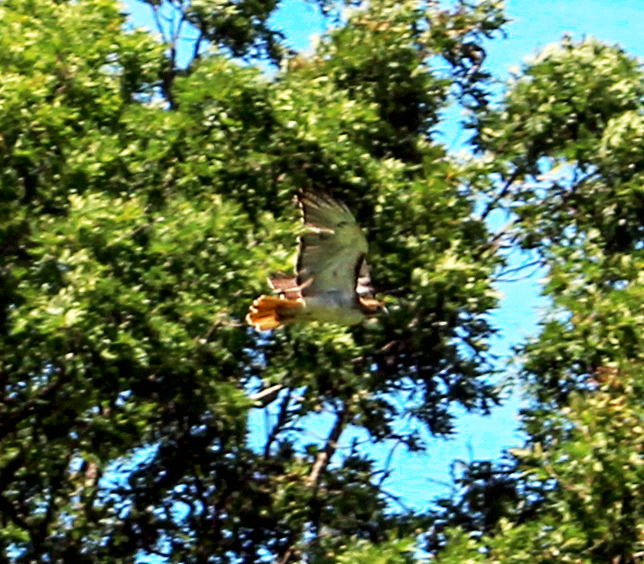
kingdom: Animalia
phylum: Chordata
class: Aves
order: Accipitriformes
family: Accipitridae
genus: Buteo
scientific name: Buteo jamaicensis
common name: Red-tailed hawk
